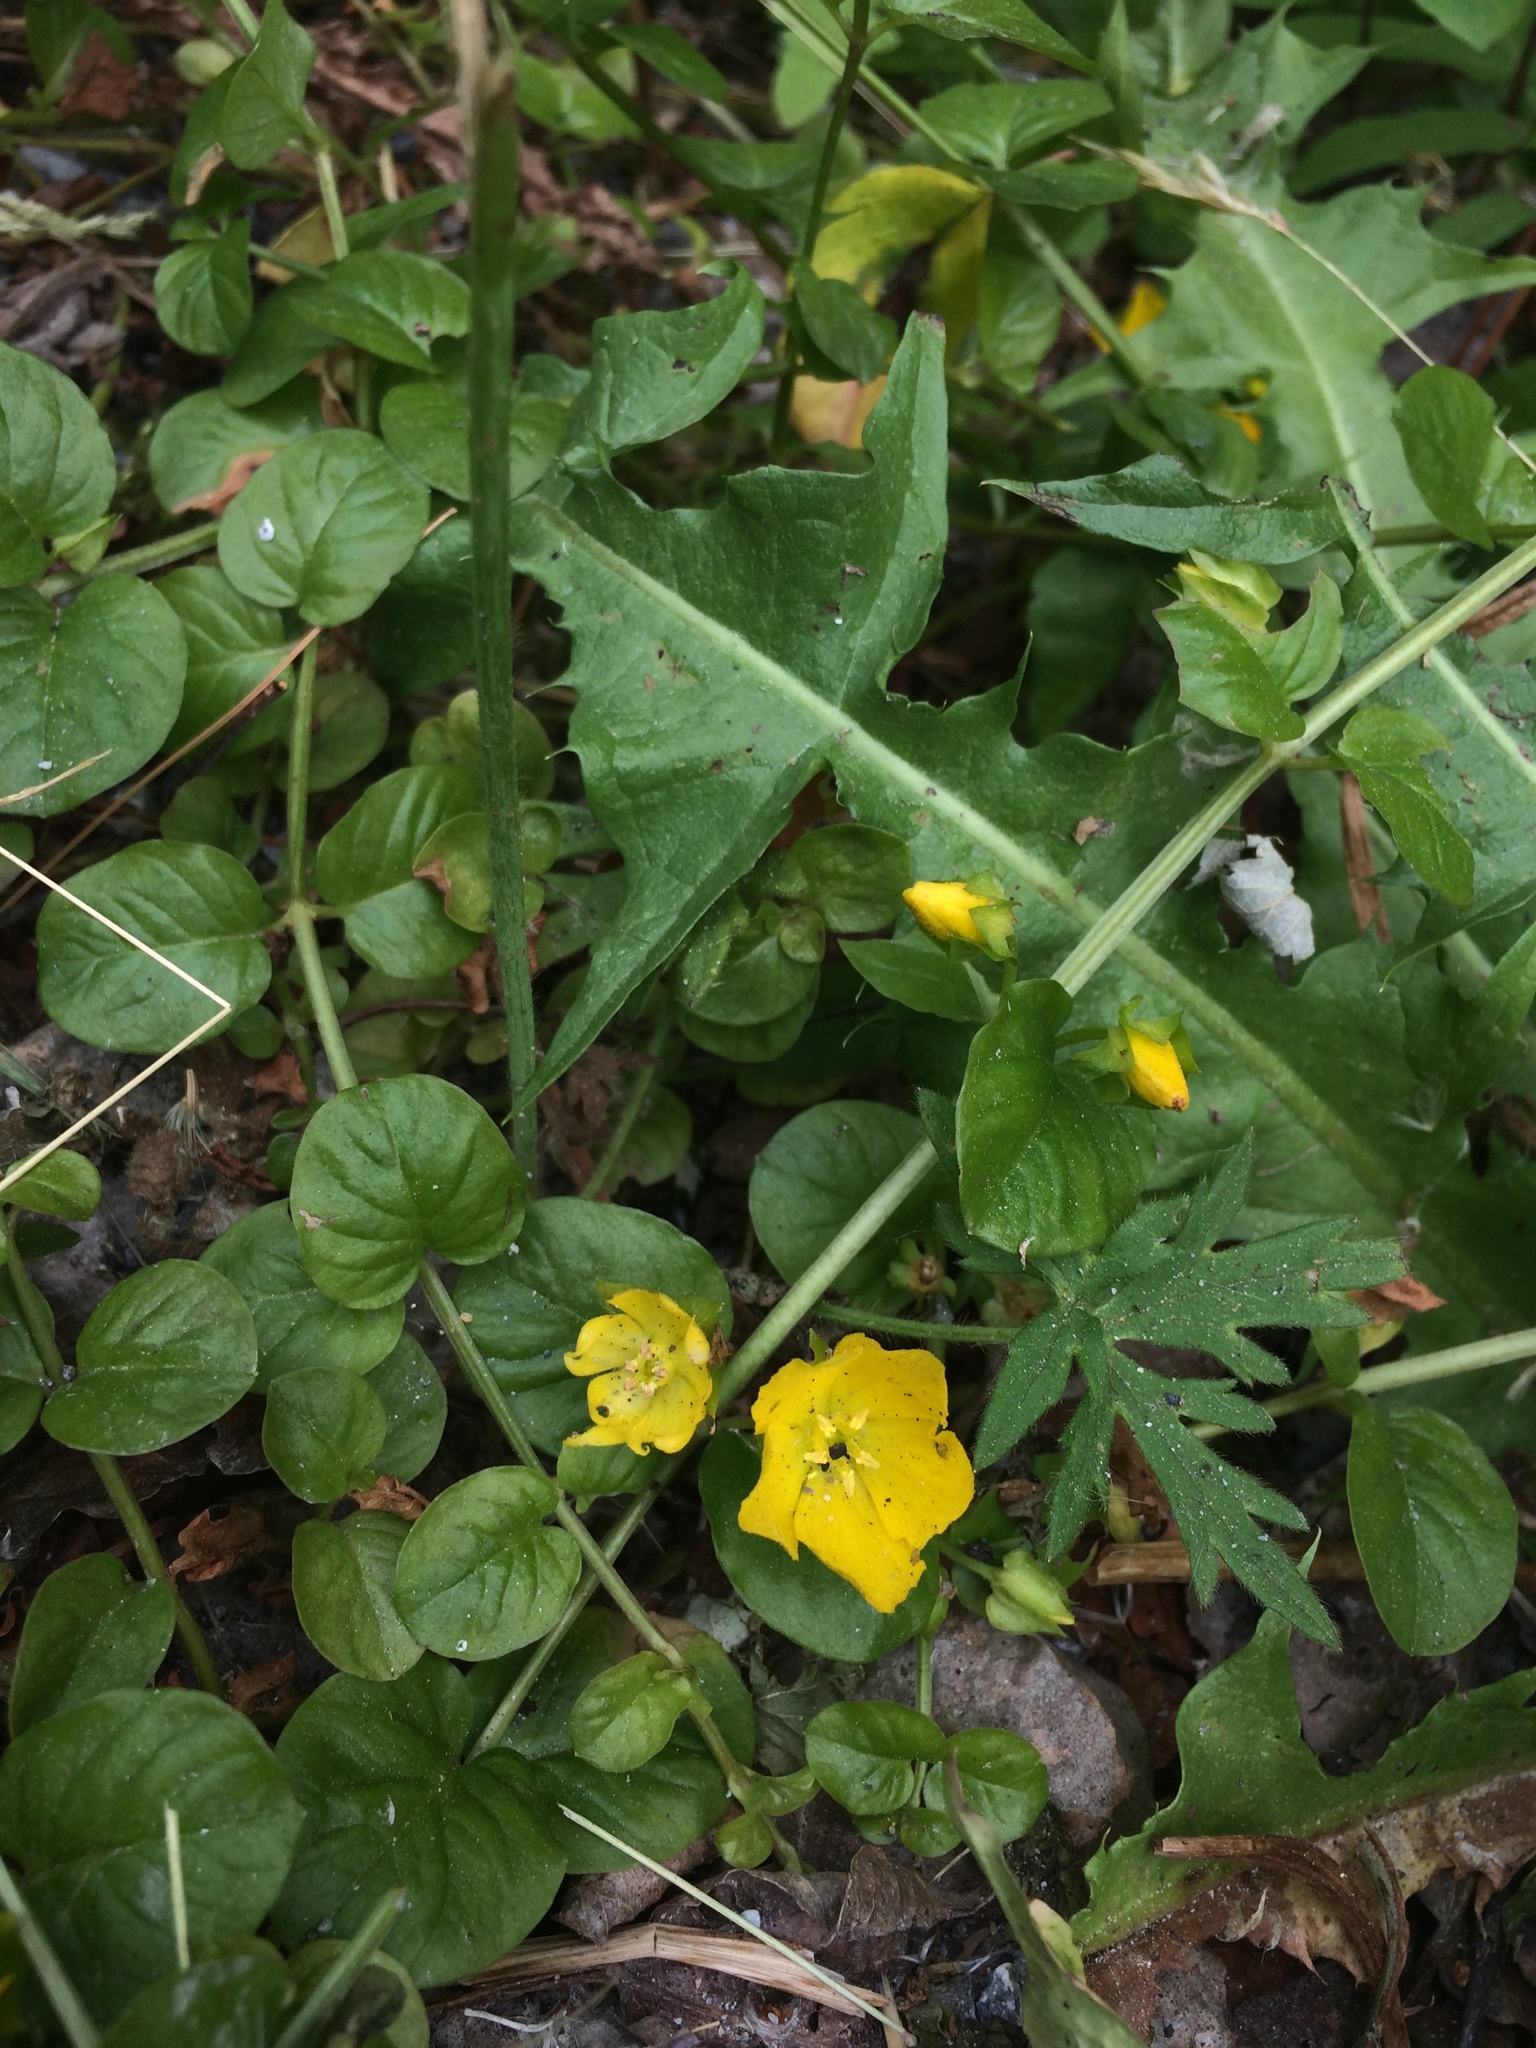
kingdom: Plantae
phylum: Tracheophyta
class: Magnoliopsida
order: Ericales
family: Primulaceae
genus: Lysimachia
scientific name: Lysimachia nummularia
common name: Moneywort
